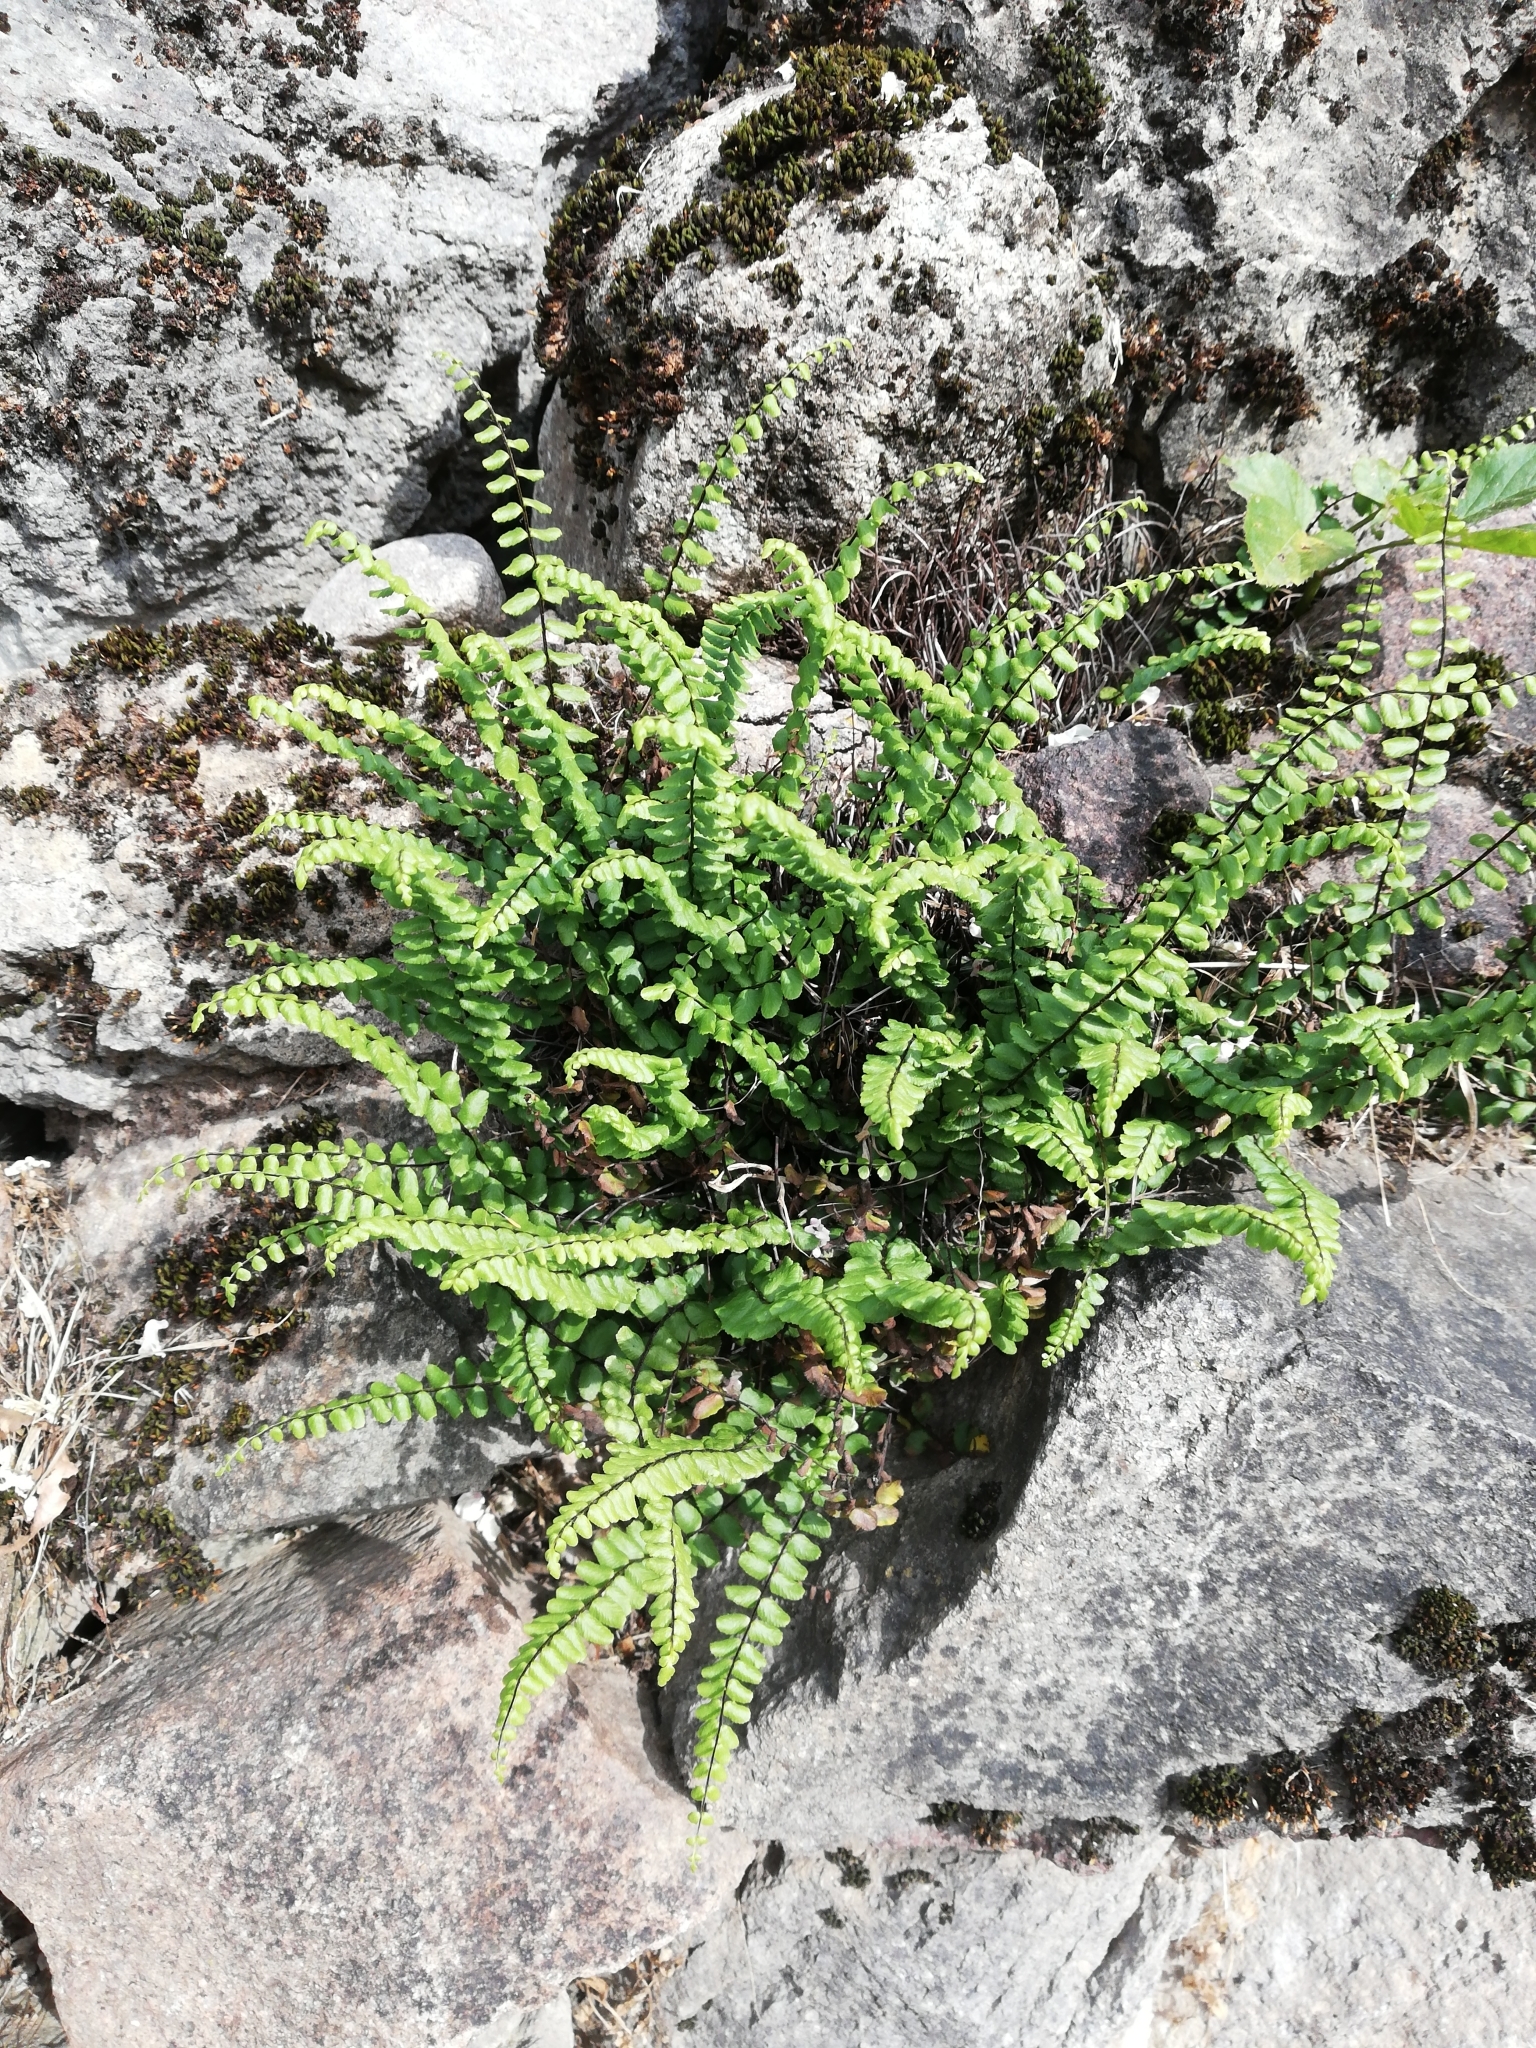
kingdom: Plantae
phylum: Tracheophyta
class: Polypodiopsida
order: Polypodiales
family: Aspleniaceae
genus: Asplenium
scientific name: Asplenium trichomanes
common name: Maidenhair spleenwort
